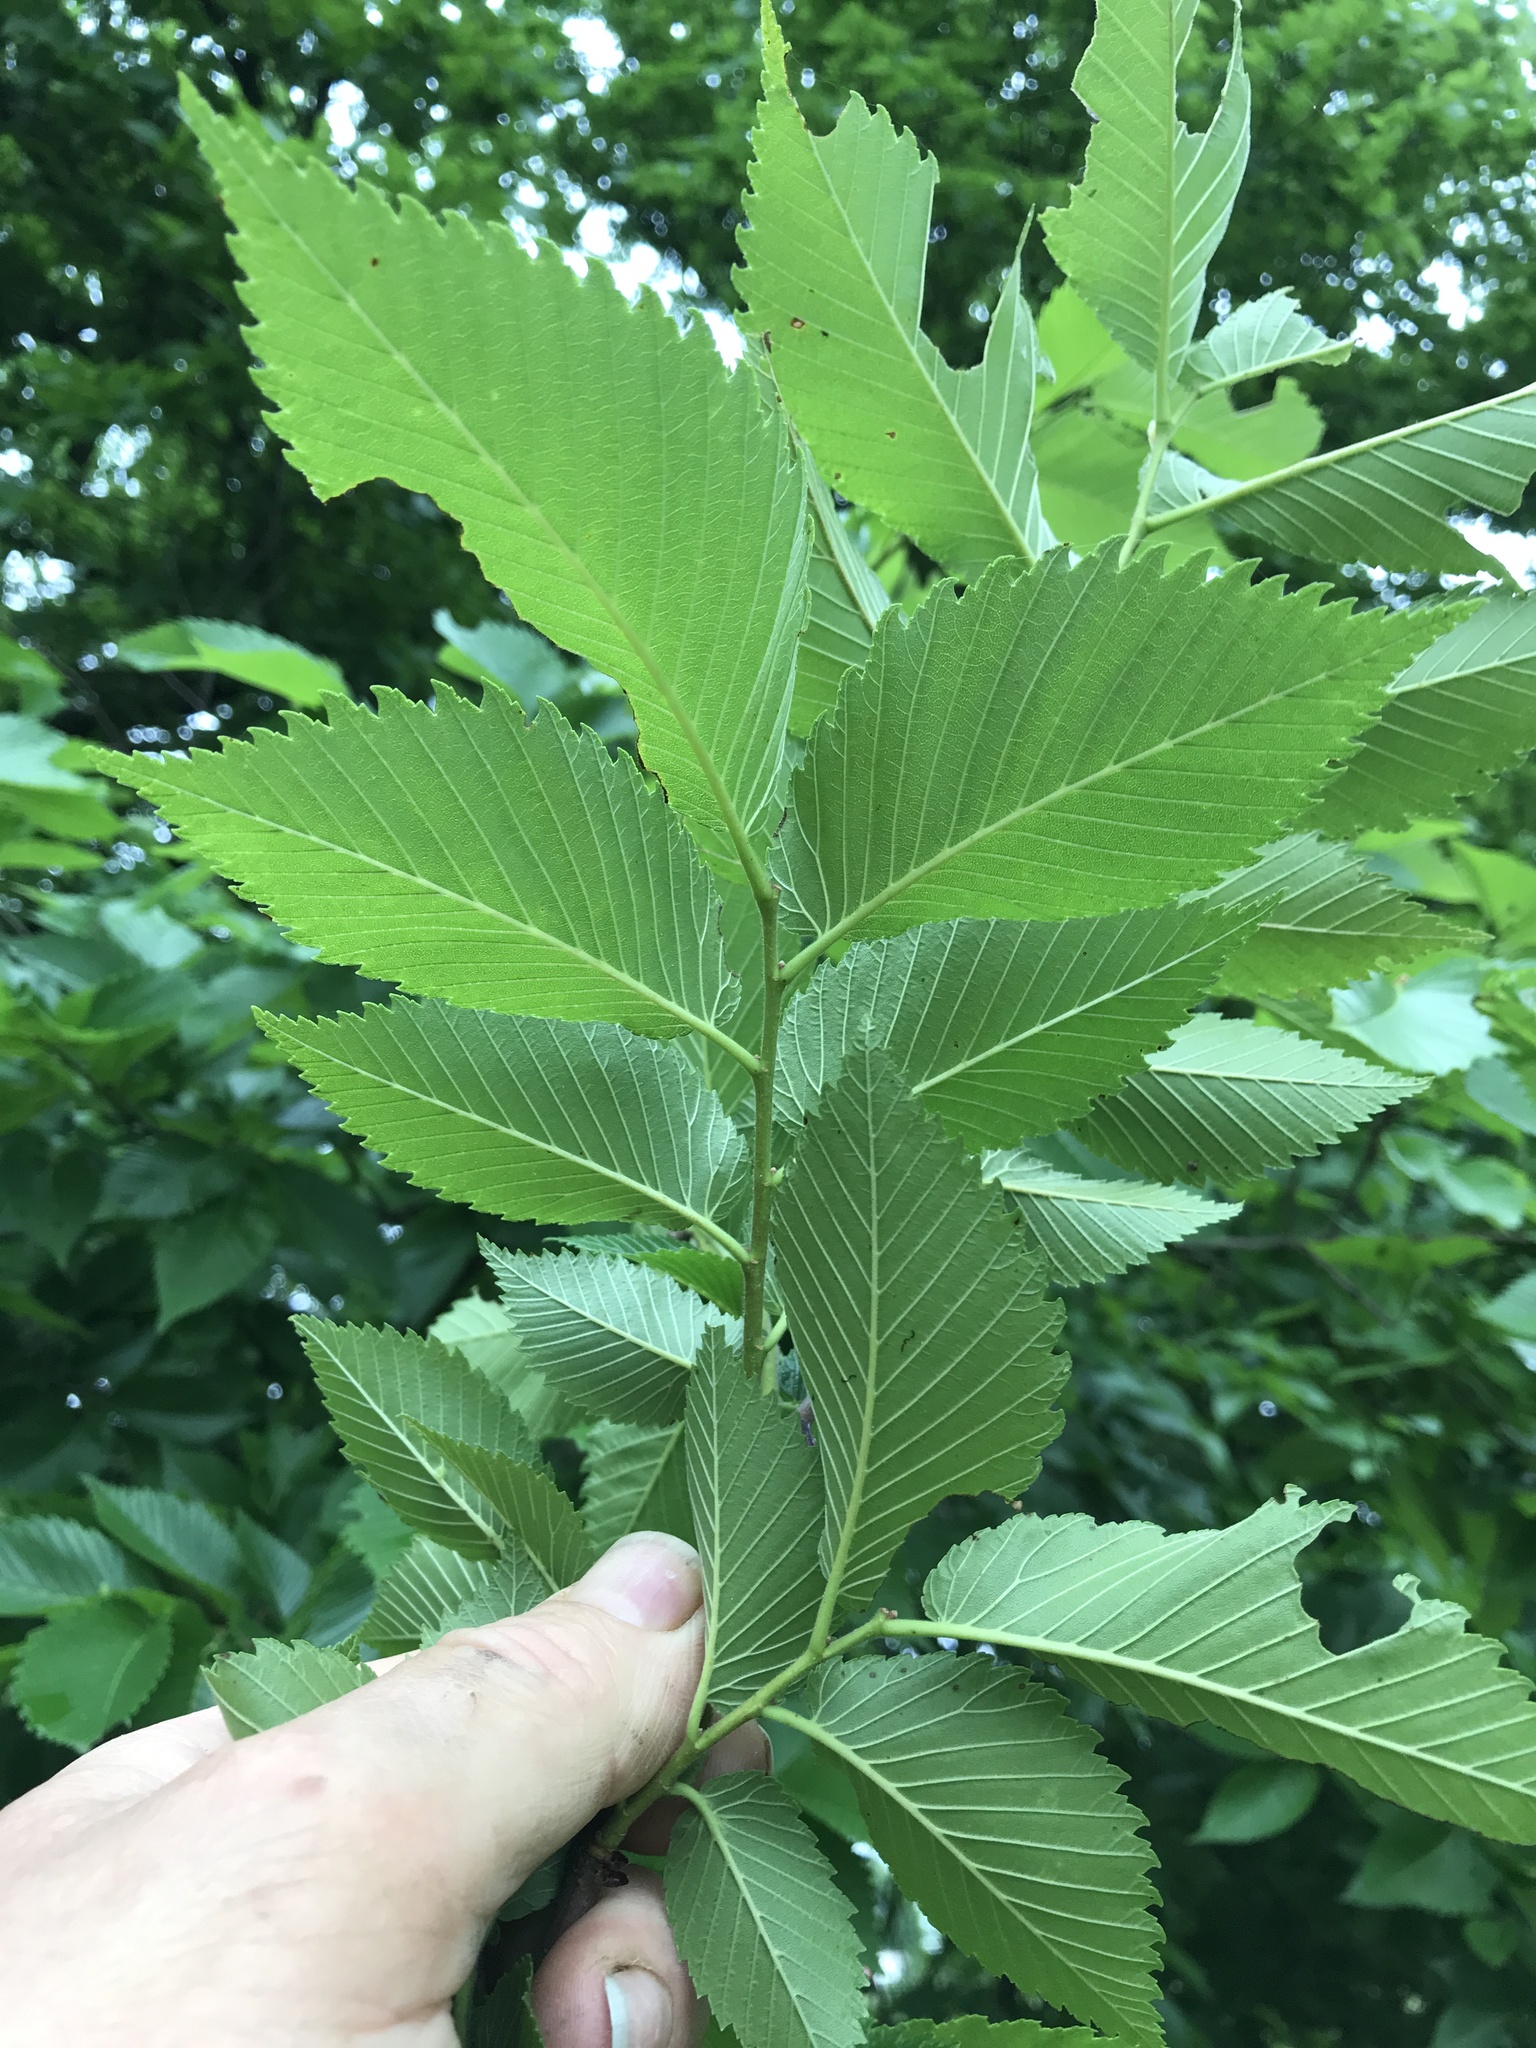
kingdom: Plantae
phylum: Tracheophyta
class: Magnoliopsida
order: Rosales
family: Ulmaceae
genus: Ulmus
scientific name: Ulmus americana
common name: American elm
